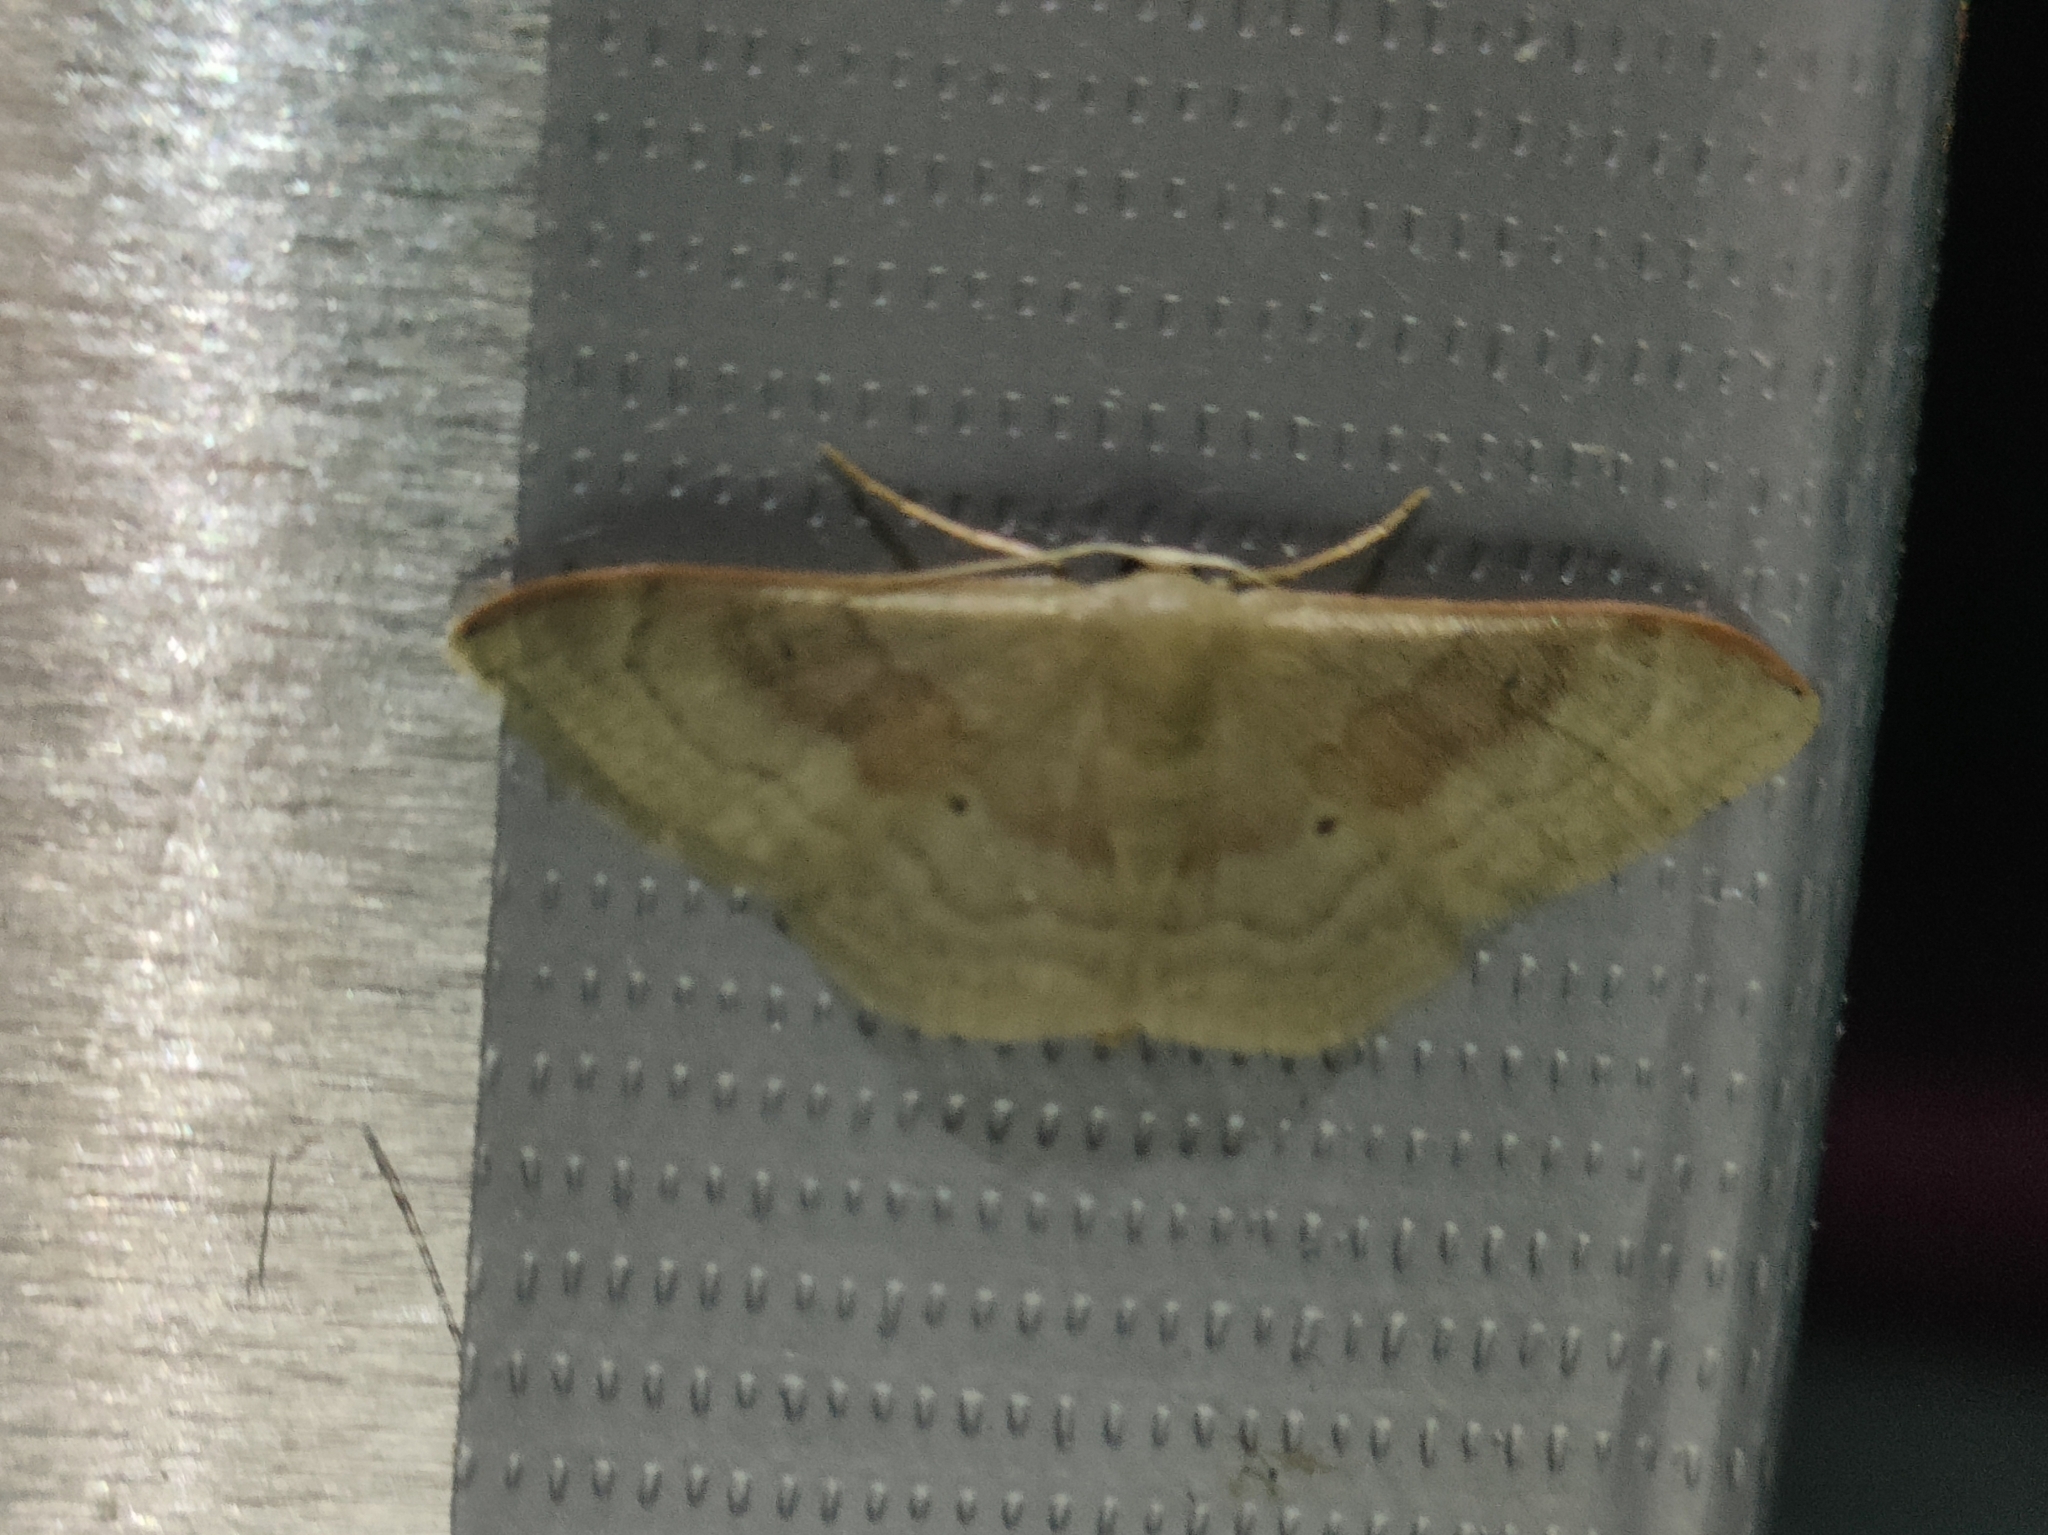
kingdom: Animalia
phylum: Arthropoda
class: Insecta
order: Lepidoptera
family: Geometridae
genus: Idaea
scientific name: Idaea degeneraria
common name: Portland ribbon wave
